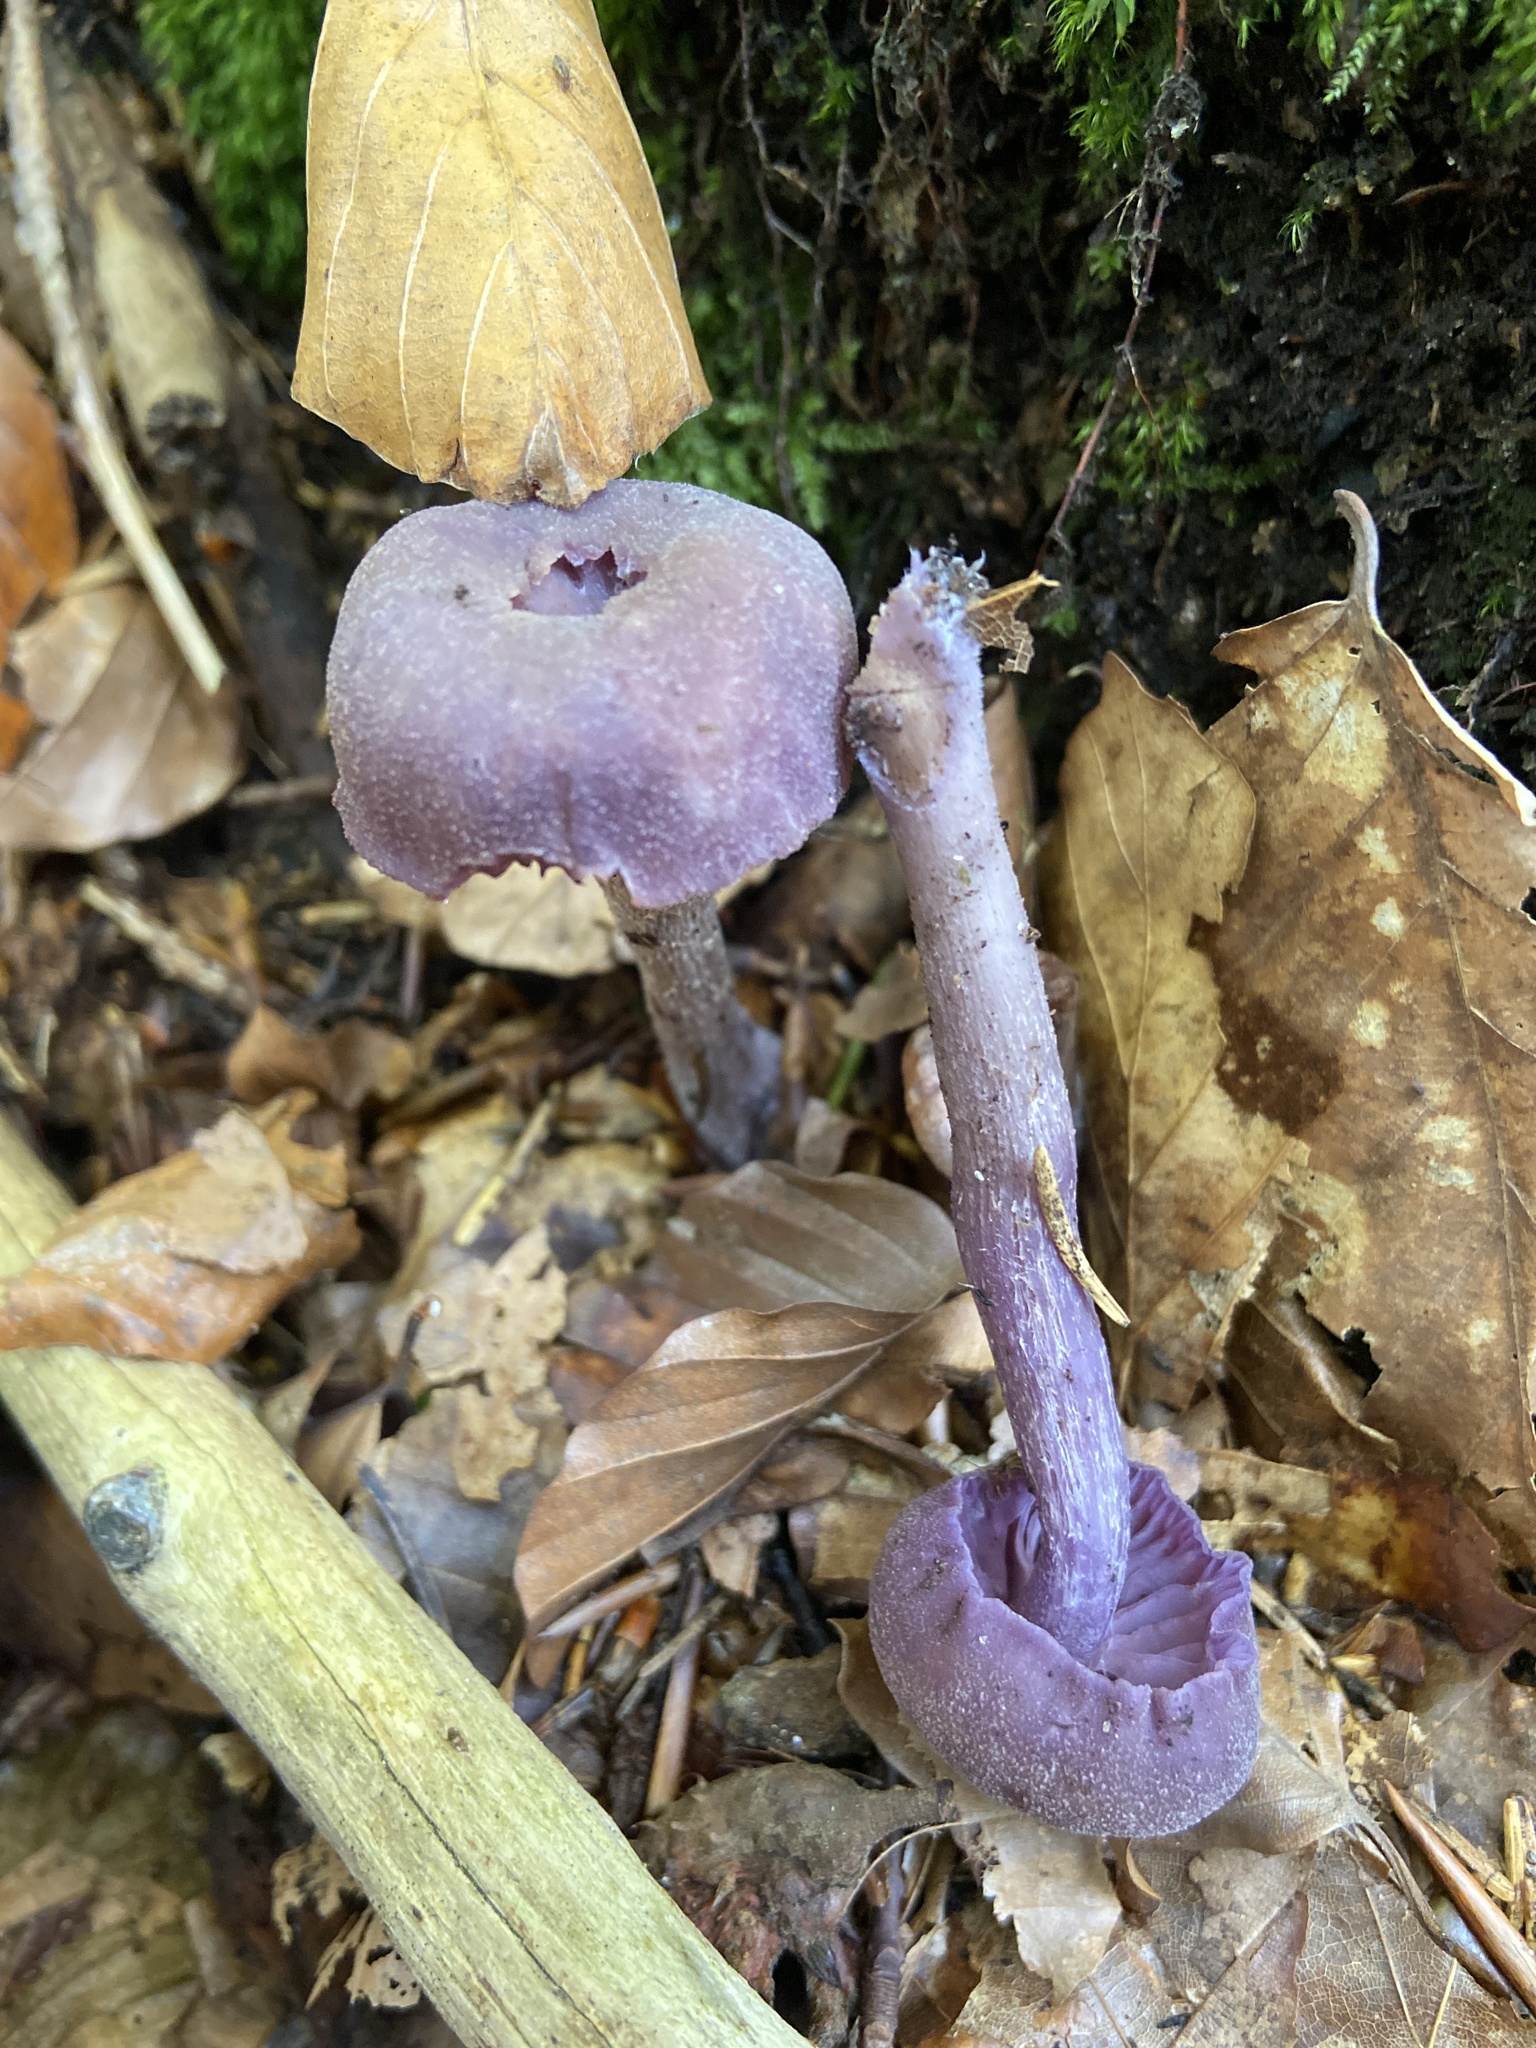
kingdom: Fungi
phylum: Basidiomycota
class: Agaricomycetes
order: Agaricales
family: Hydnangiaceae
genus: Laccaria
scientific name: Laccaria amethystina
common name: Amethyst deceiver
